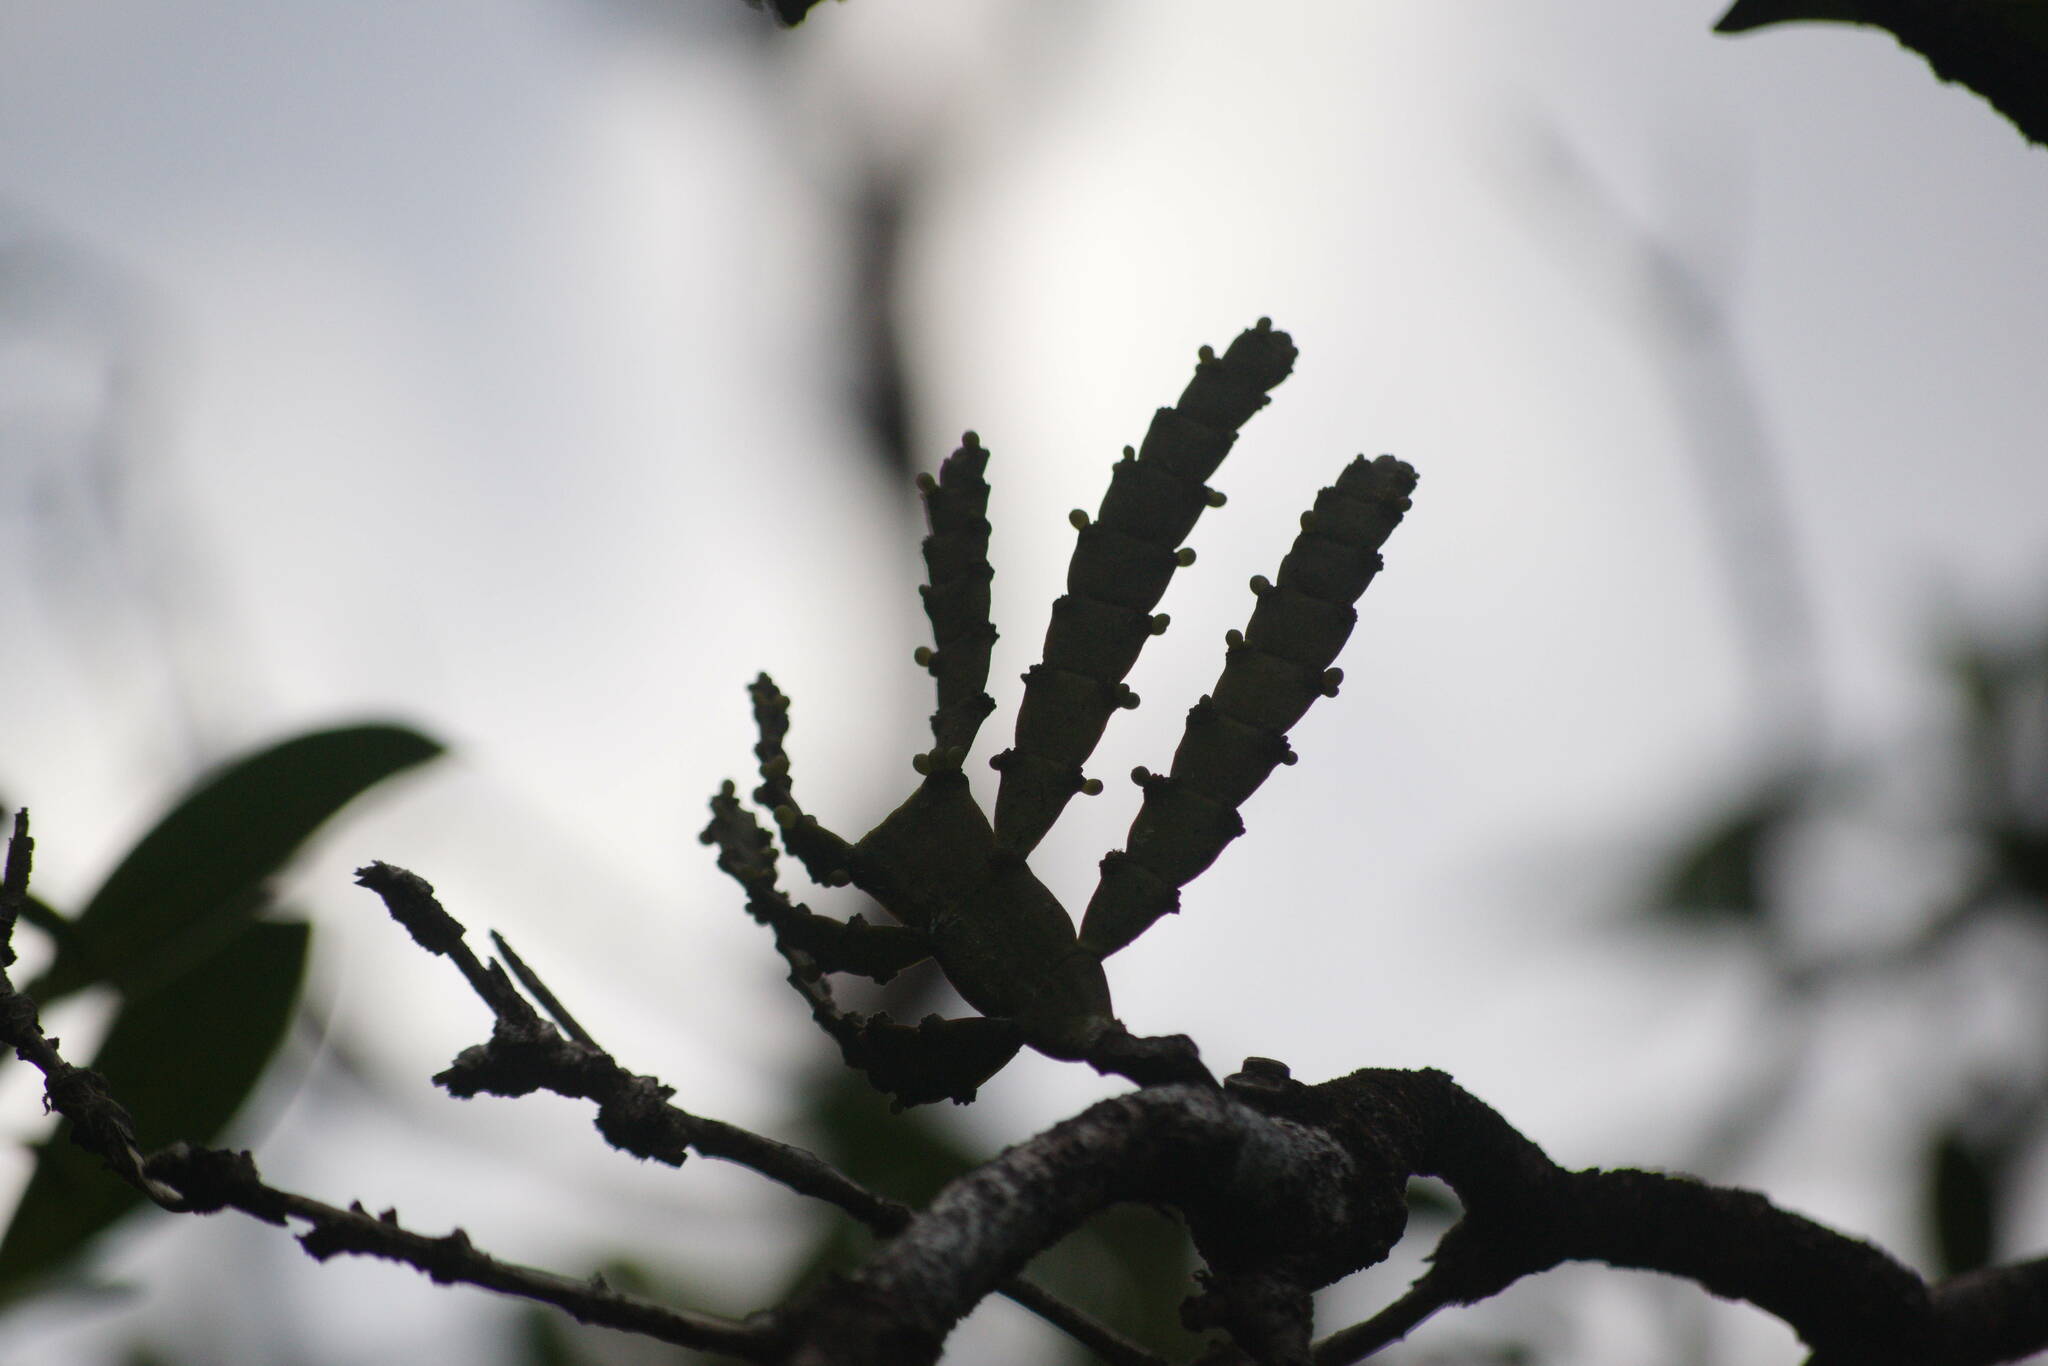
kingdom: Plantae
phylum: Tracheophyta
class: Magnoliopsida
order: Santalales
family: Viscaceae
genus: Korthalsella
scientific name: Korthalsella latissima
